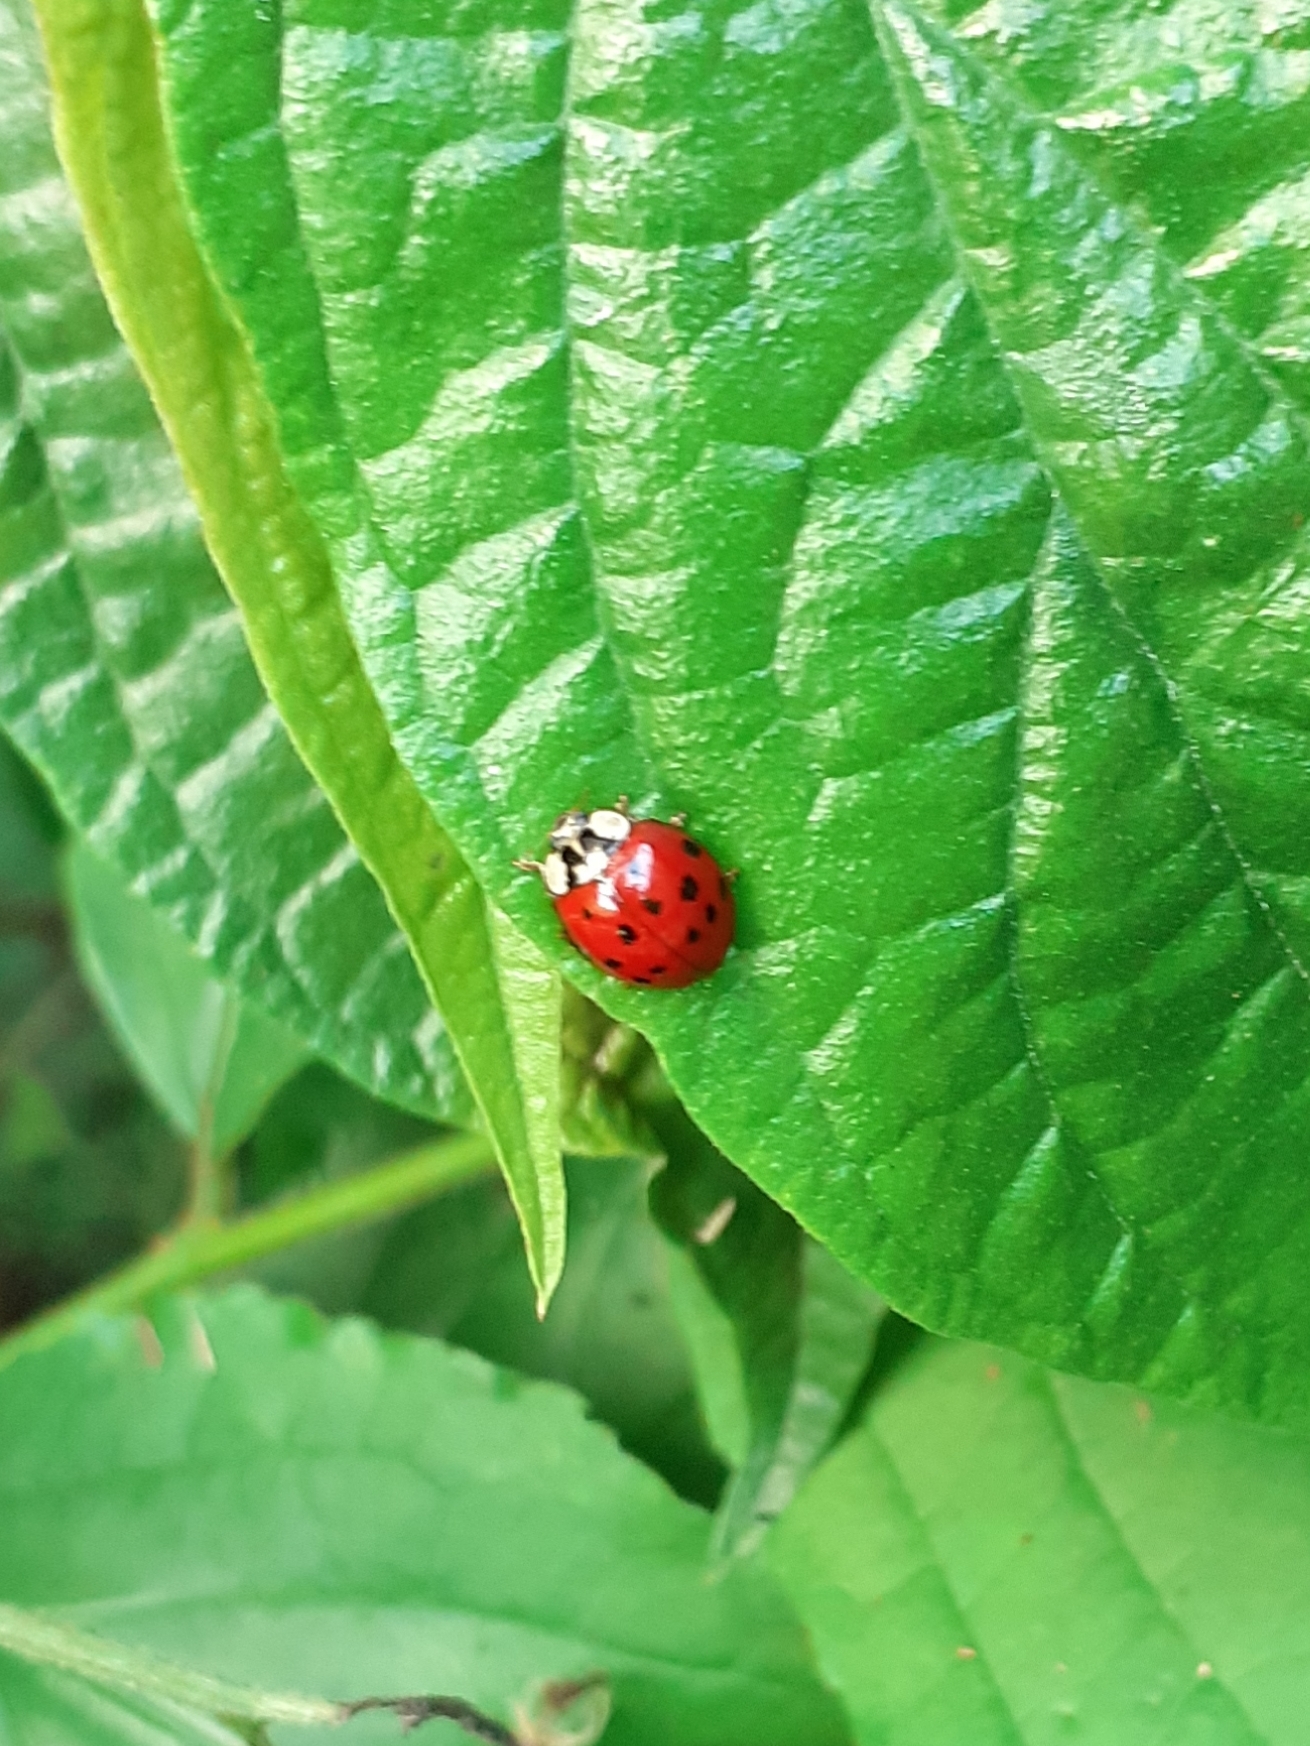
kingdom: Animalia
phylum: Arthropoda
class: Insecta
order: Coleoptera
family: Coccinellidae
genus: Harmonia
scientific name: Harmonia axyridis
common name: Harlequin ladybird
